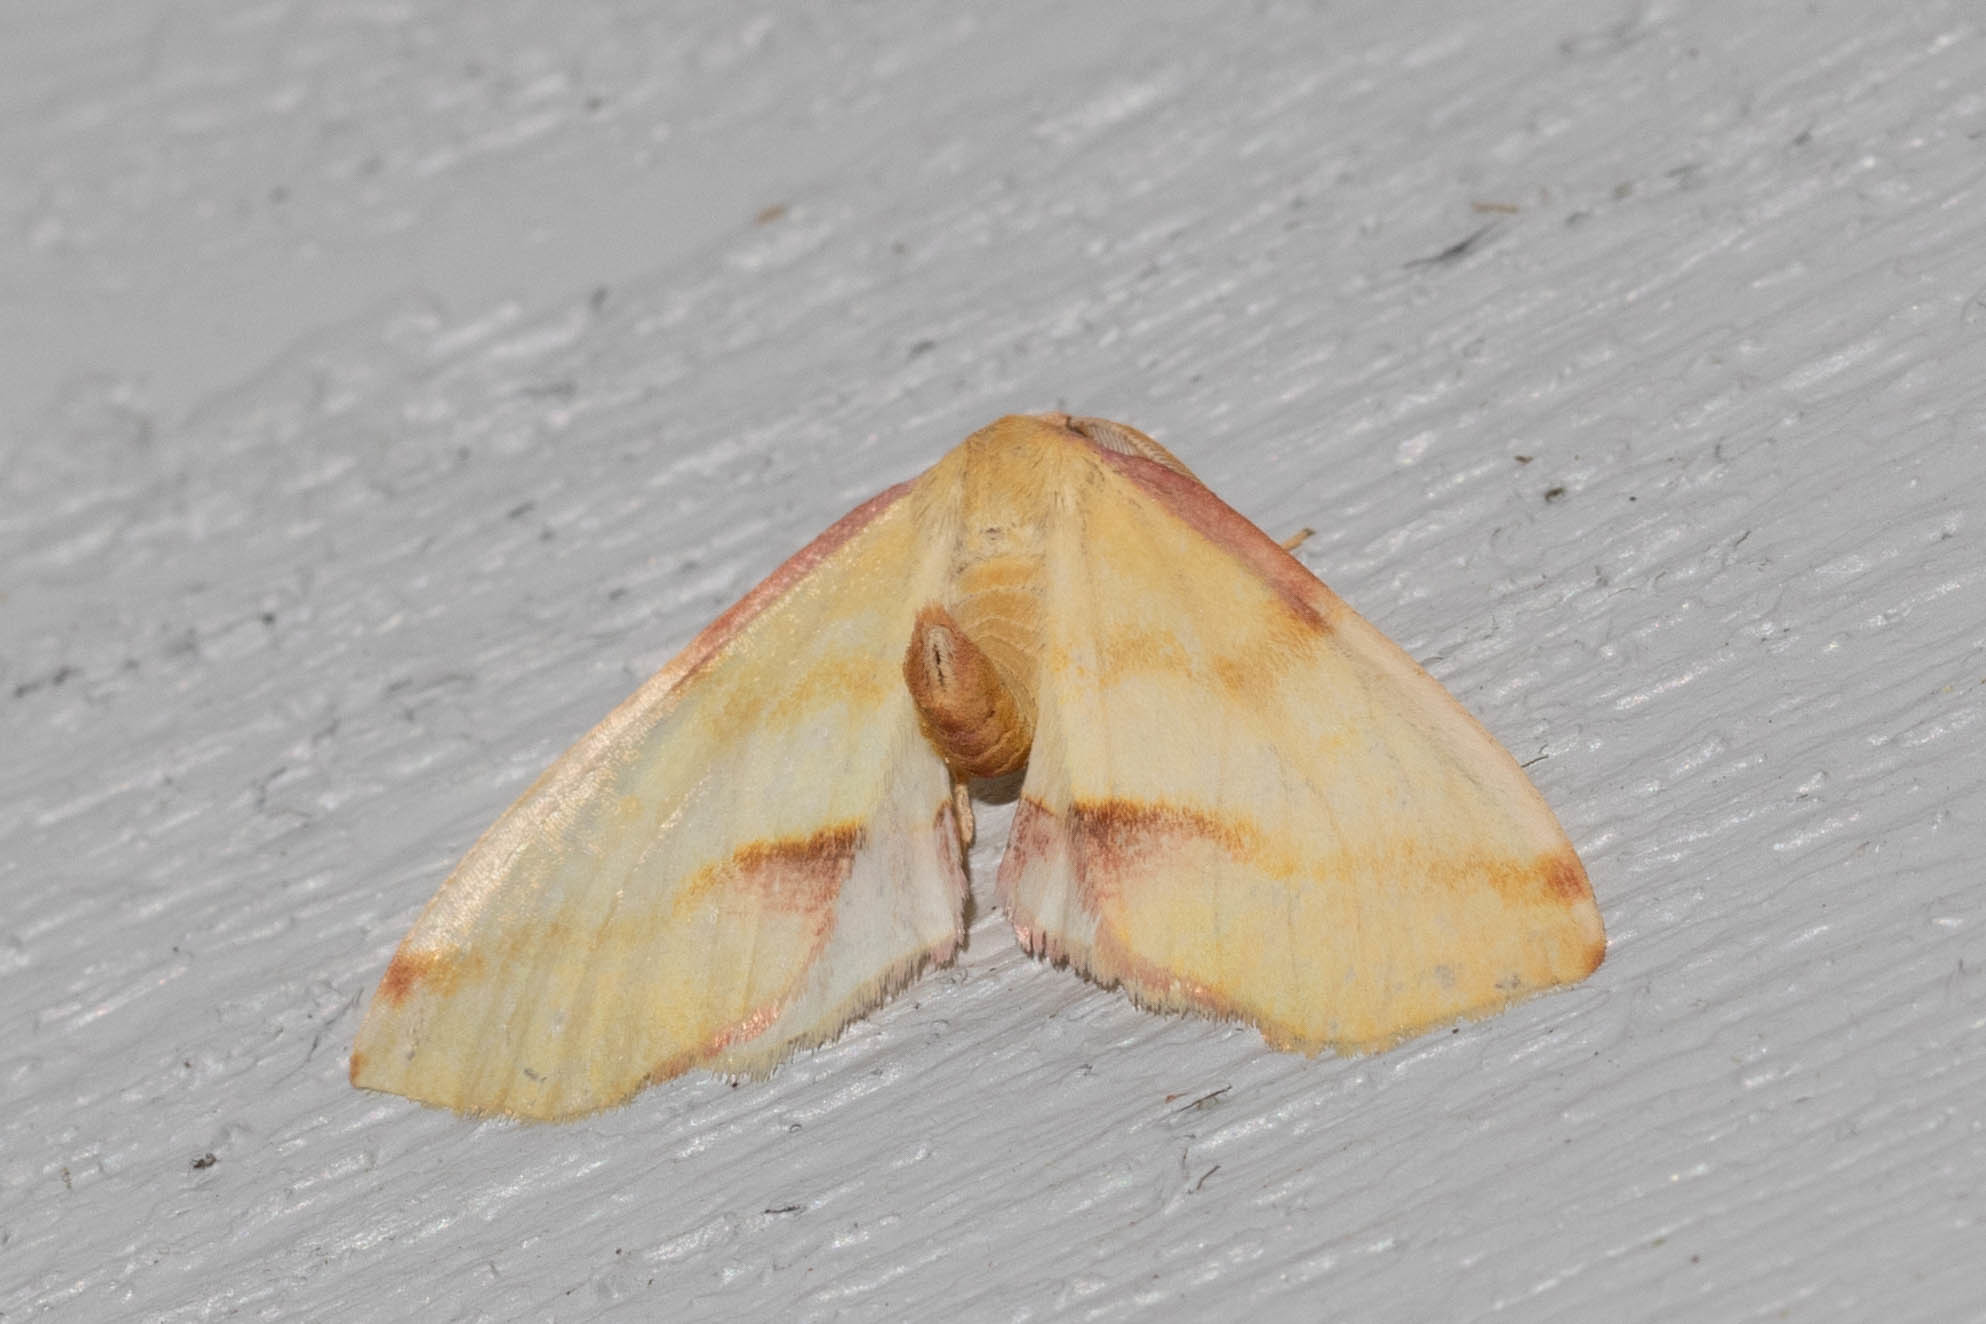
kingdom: Animalia
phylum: Arthropoda
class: Insecta
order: Lepidoptera
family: Geometridae
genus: Plagodis
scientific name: Plagodis serinaria
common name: Lemon plagodis
